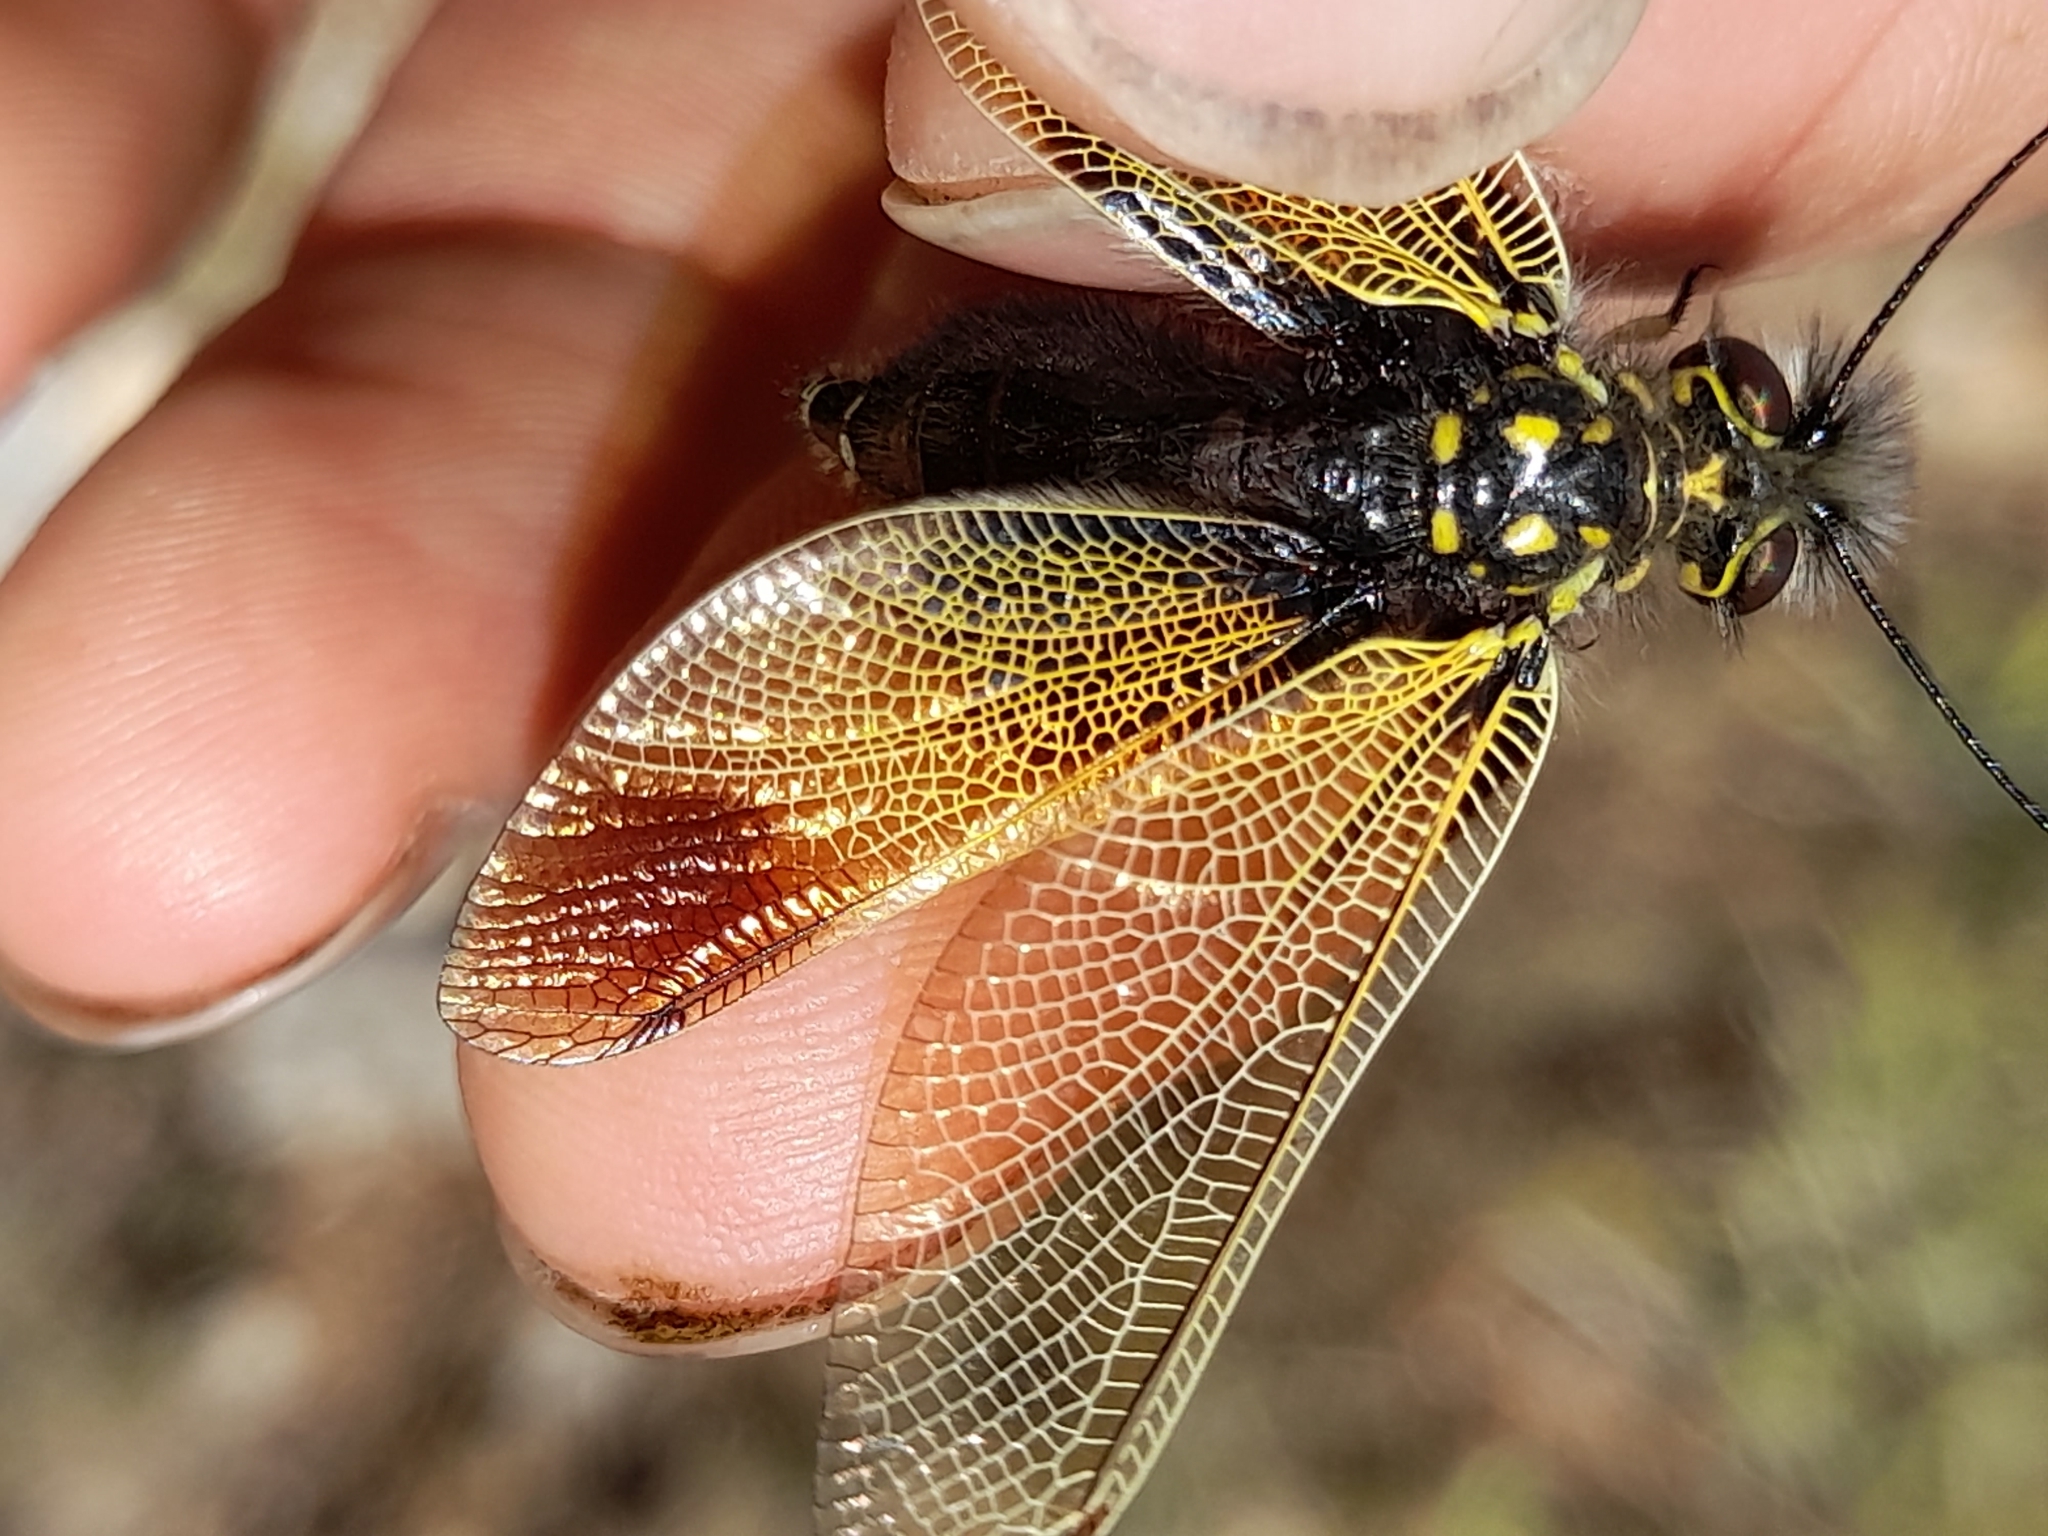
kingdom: Animalia
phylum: Arthropoda
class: Insecta
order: Neuroptera
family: Ascalaphidae
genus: Libelloides
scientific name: Libelloides ictericus
